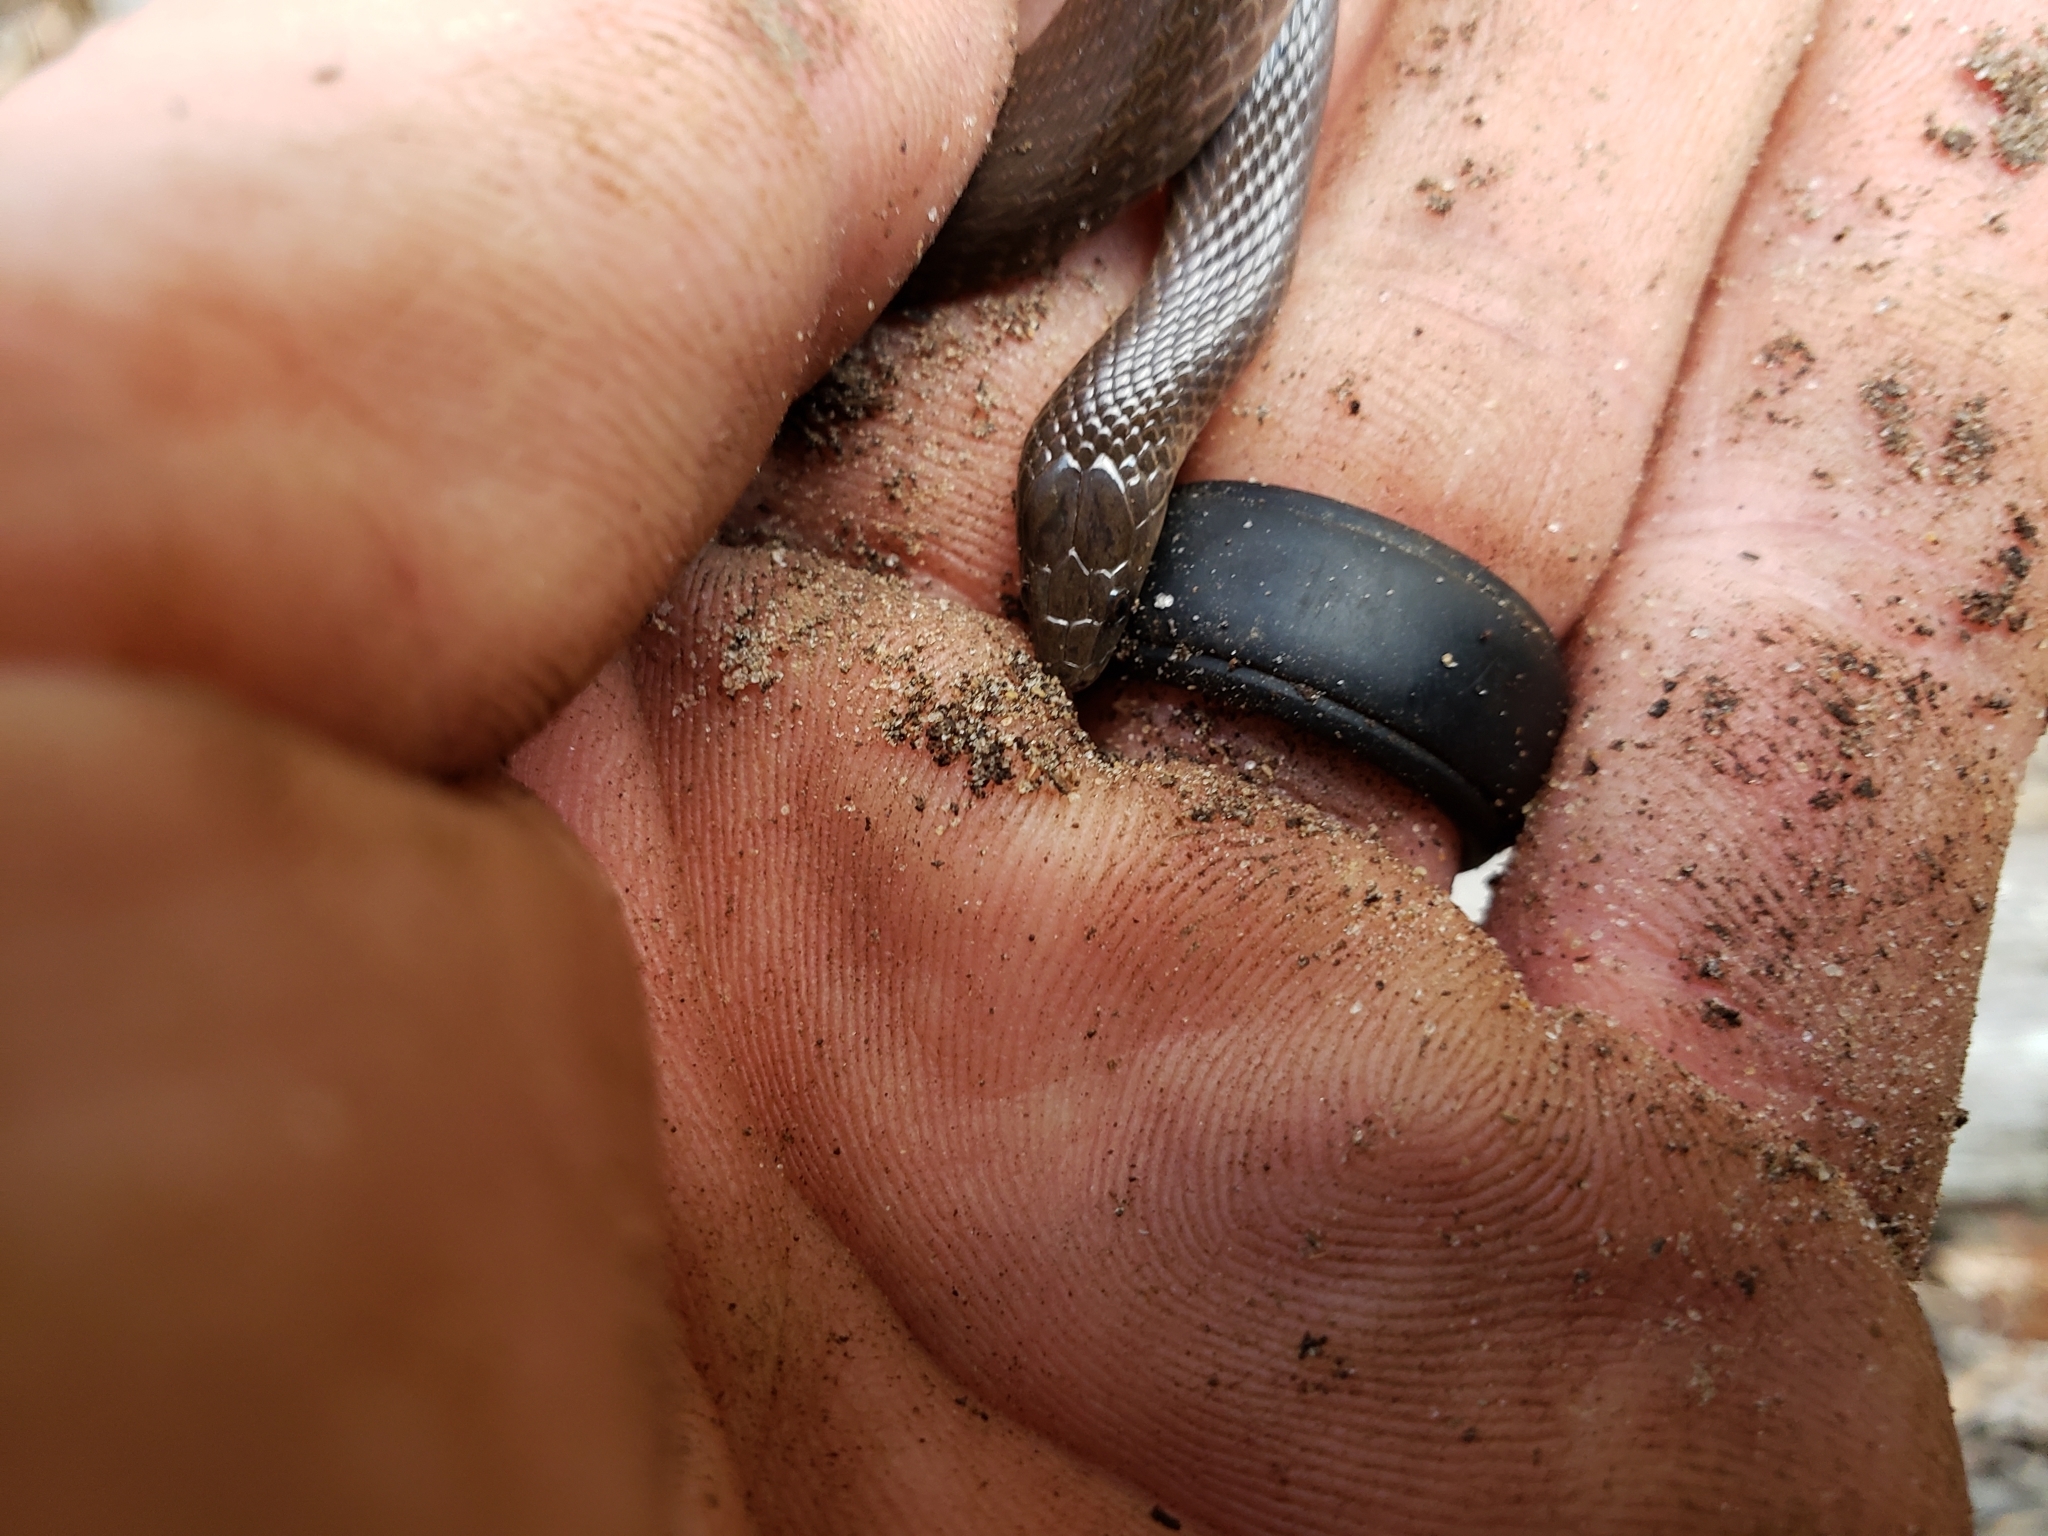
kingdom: Animalia
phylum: Chordata
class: Squamata
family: Colubridae
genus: Haldea
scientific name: Haldea striatula
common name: Rough earth snake
